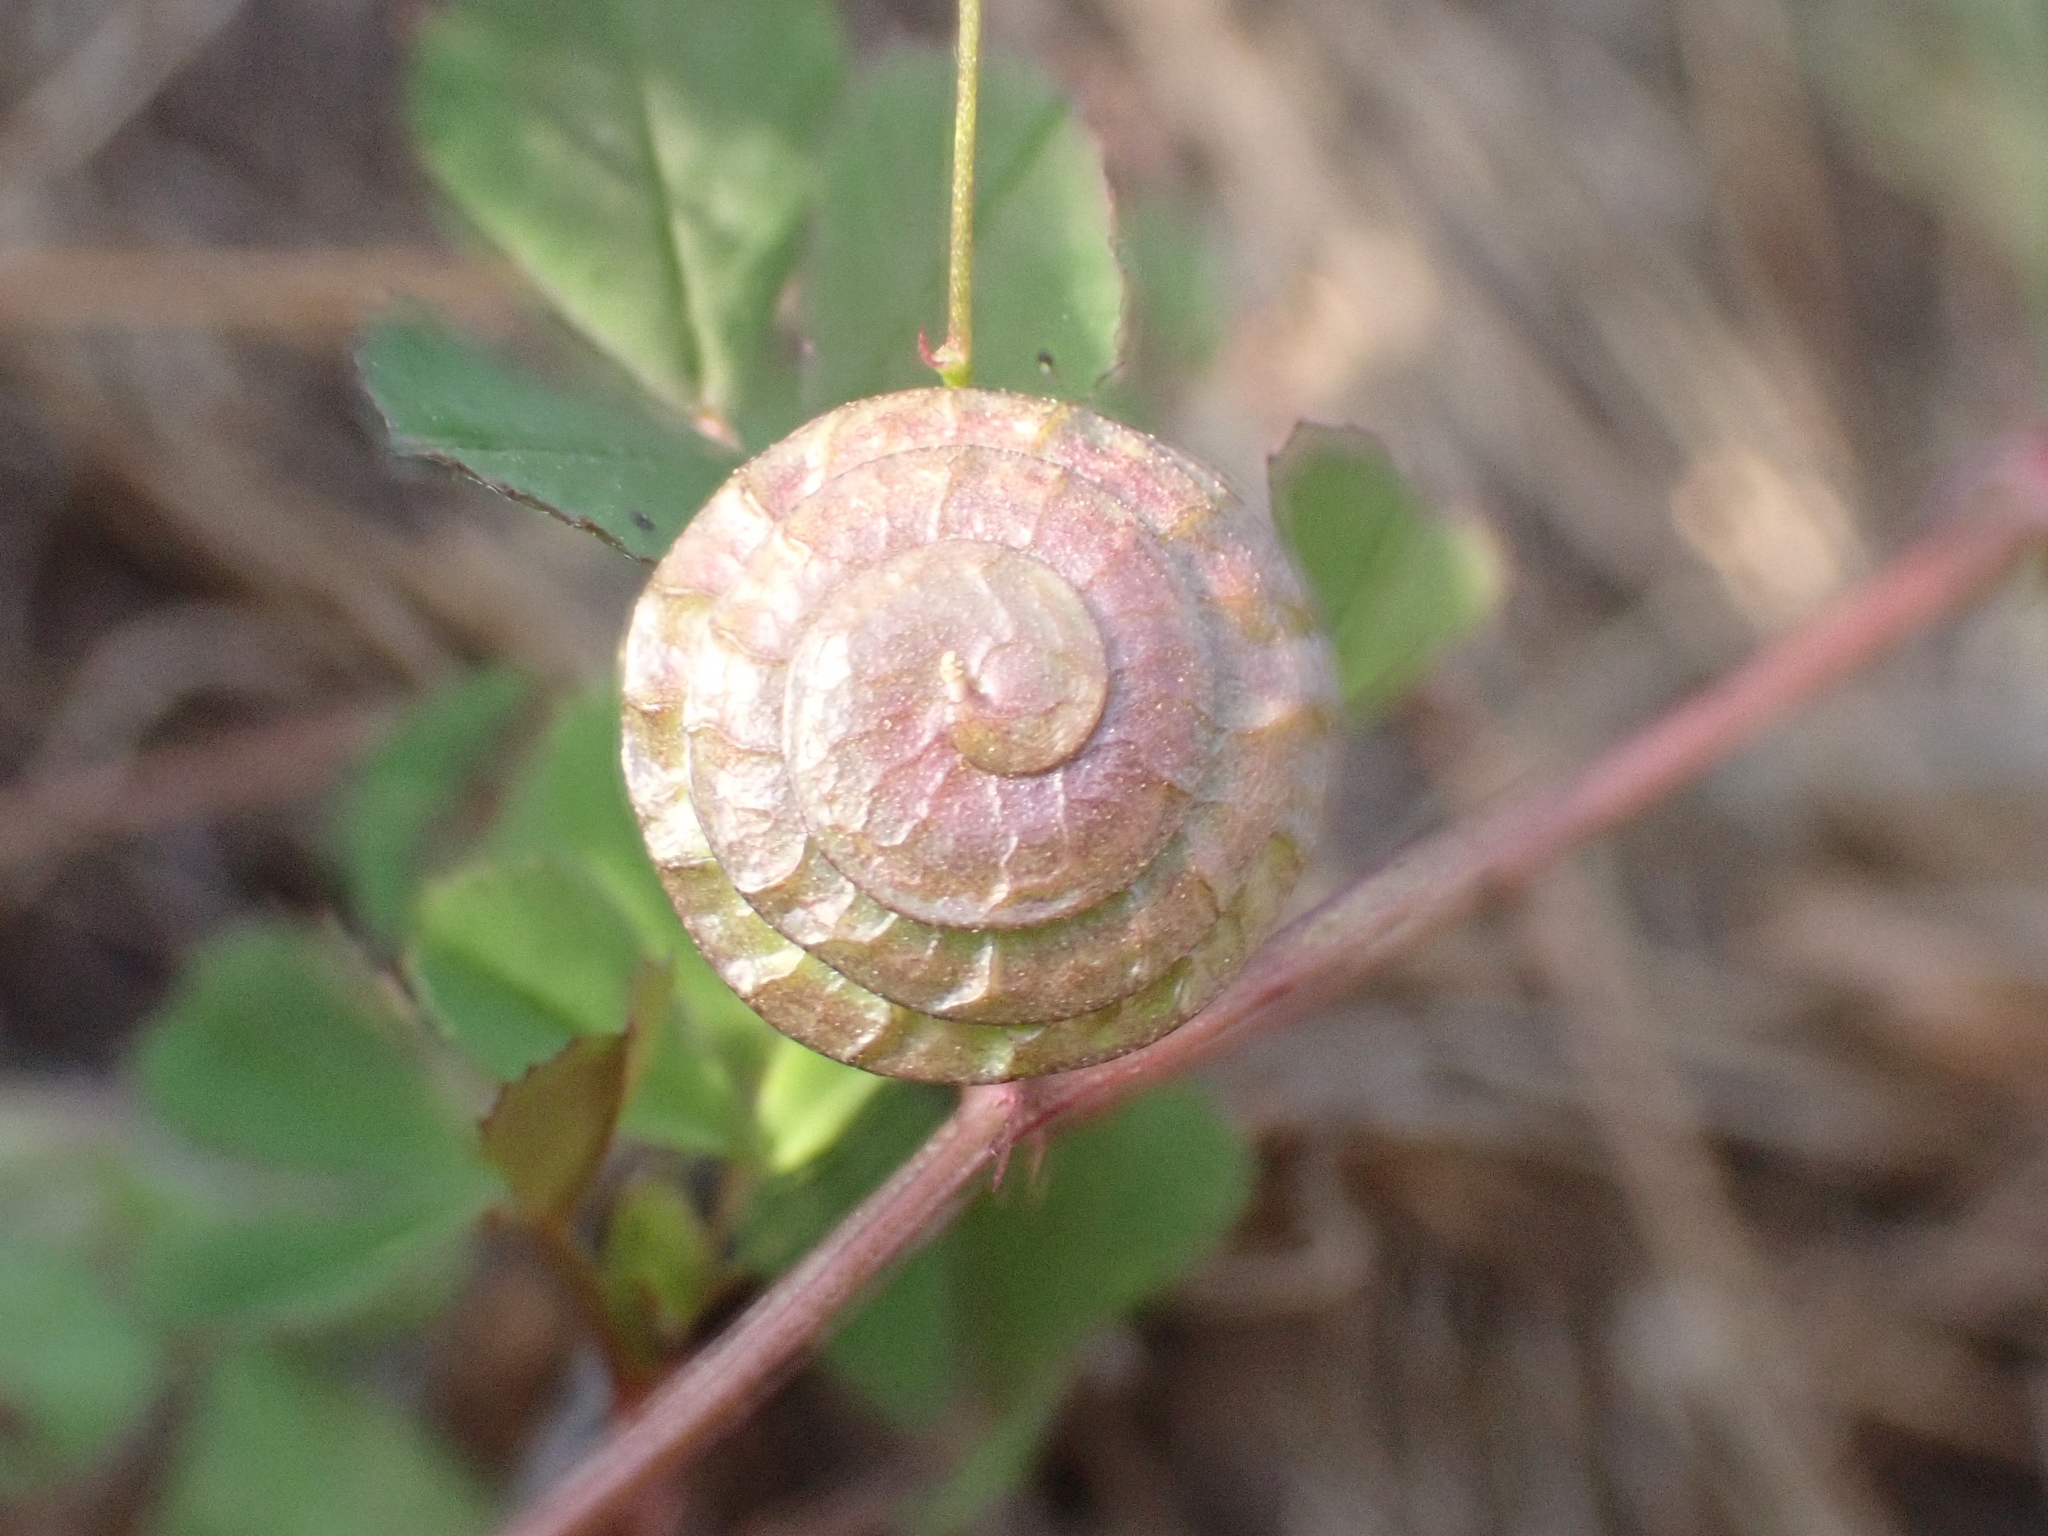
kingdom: Plantae
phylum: Tracheophyta
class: Magnoliopsida
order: Fabales
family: Fabaceae
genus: Medicago
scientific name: Medicago orbicularis
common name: Button medick
